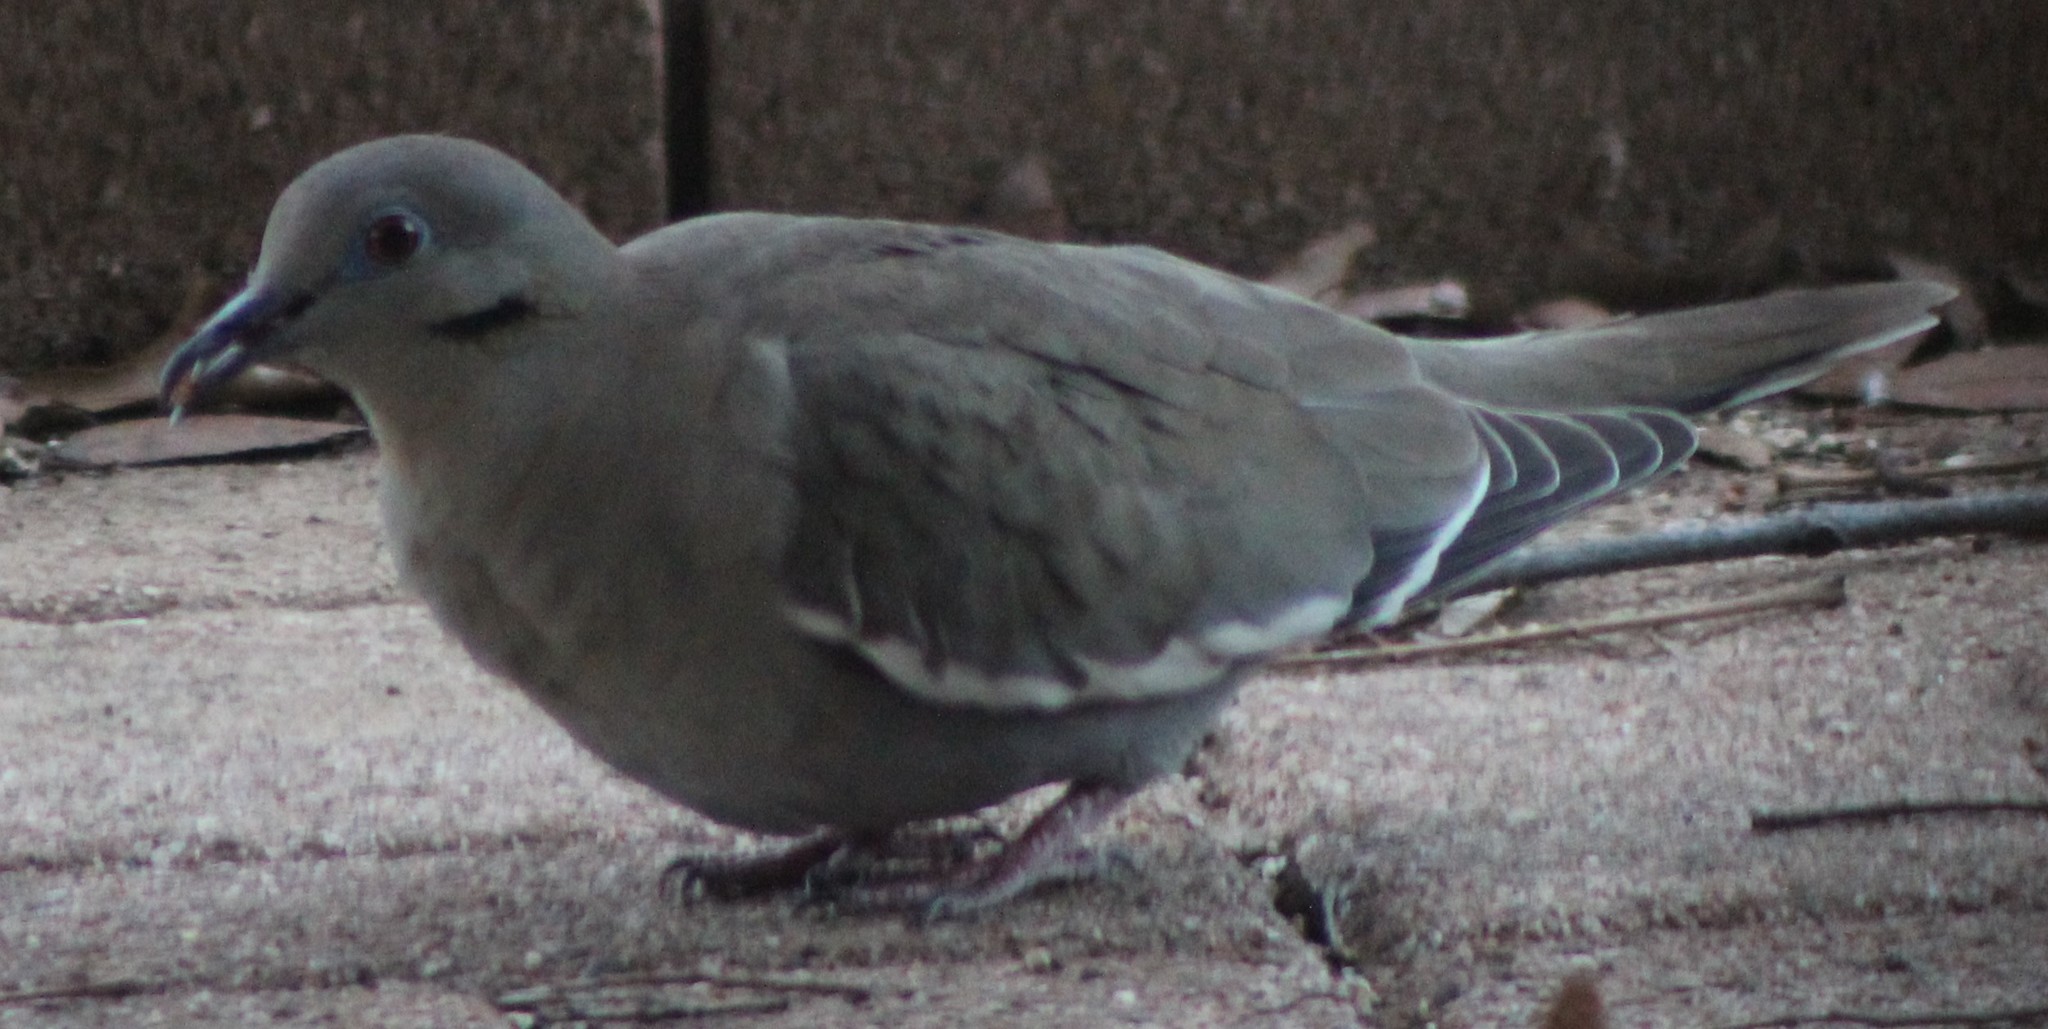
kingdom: Animalia
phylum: Chordata
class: Aves
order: Columbiformes
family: Columbidae
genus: Zenaida
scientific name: Zenaida asiatica
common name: White-winged dove
